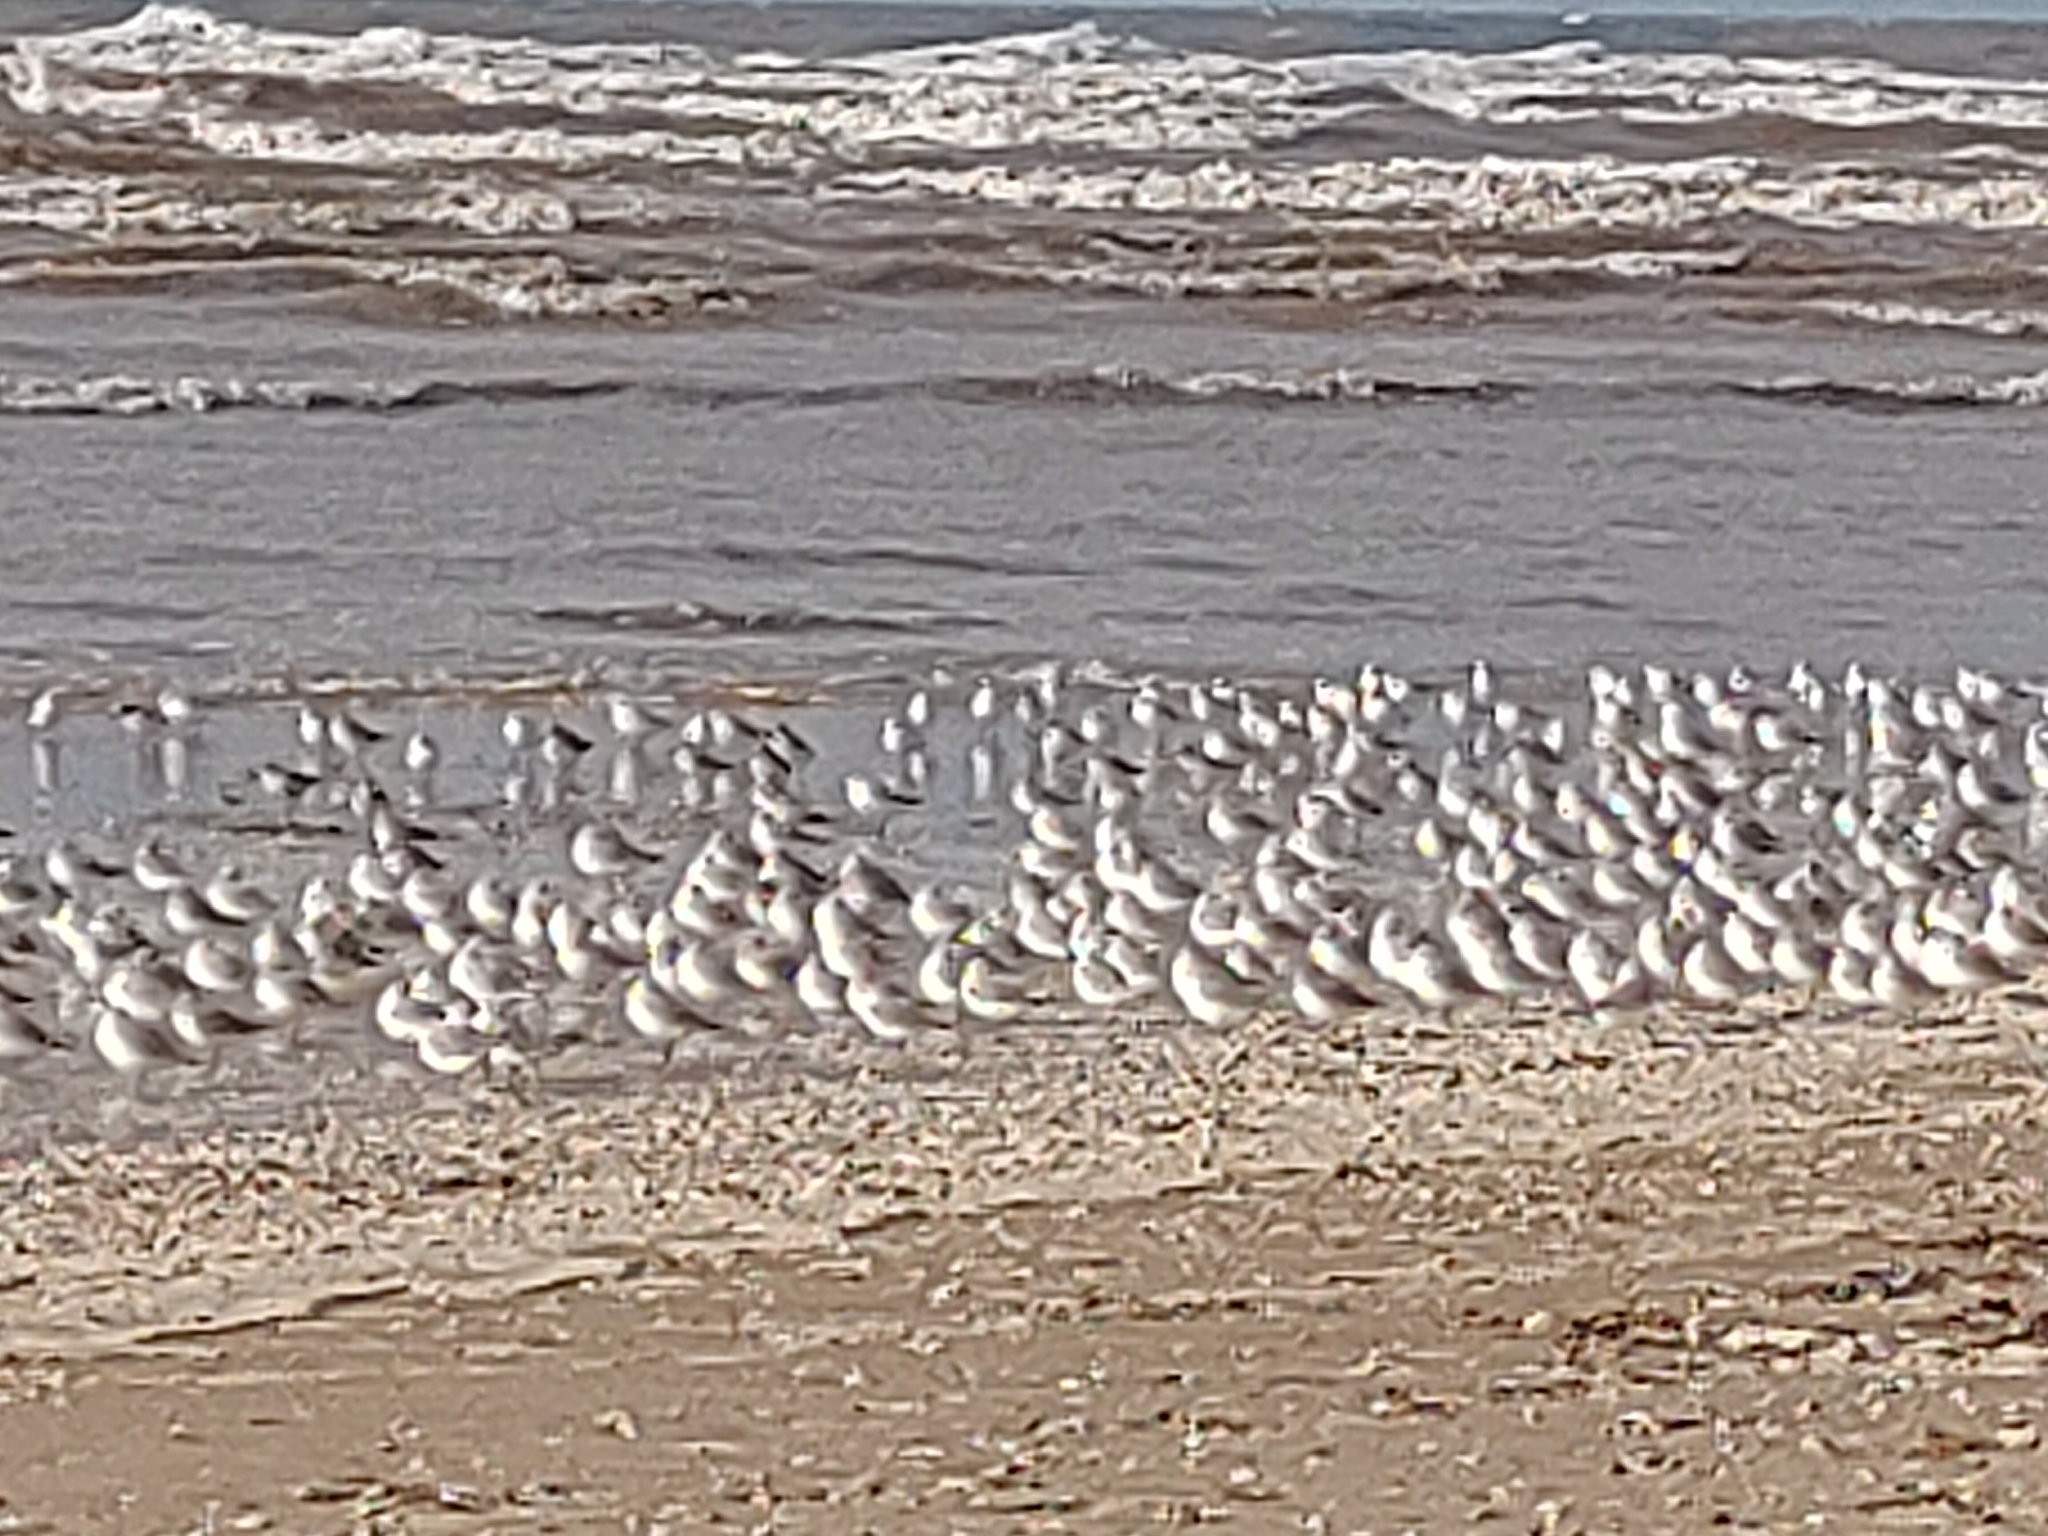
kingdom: Animalia
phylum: Chordata
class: Aves
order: Charadriiformes
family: Scolopacidae
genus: Calidris
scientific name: Calidris alba
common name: Sanderling
